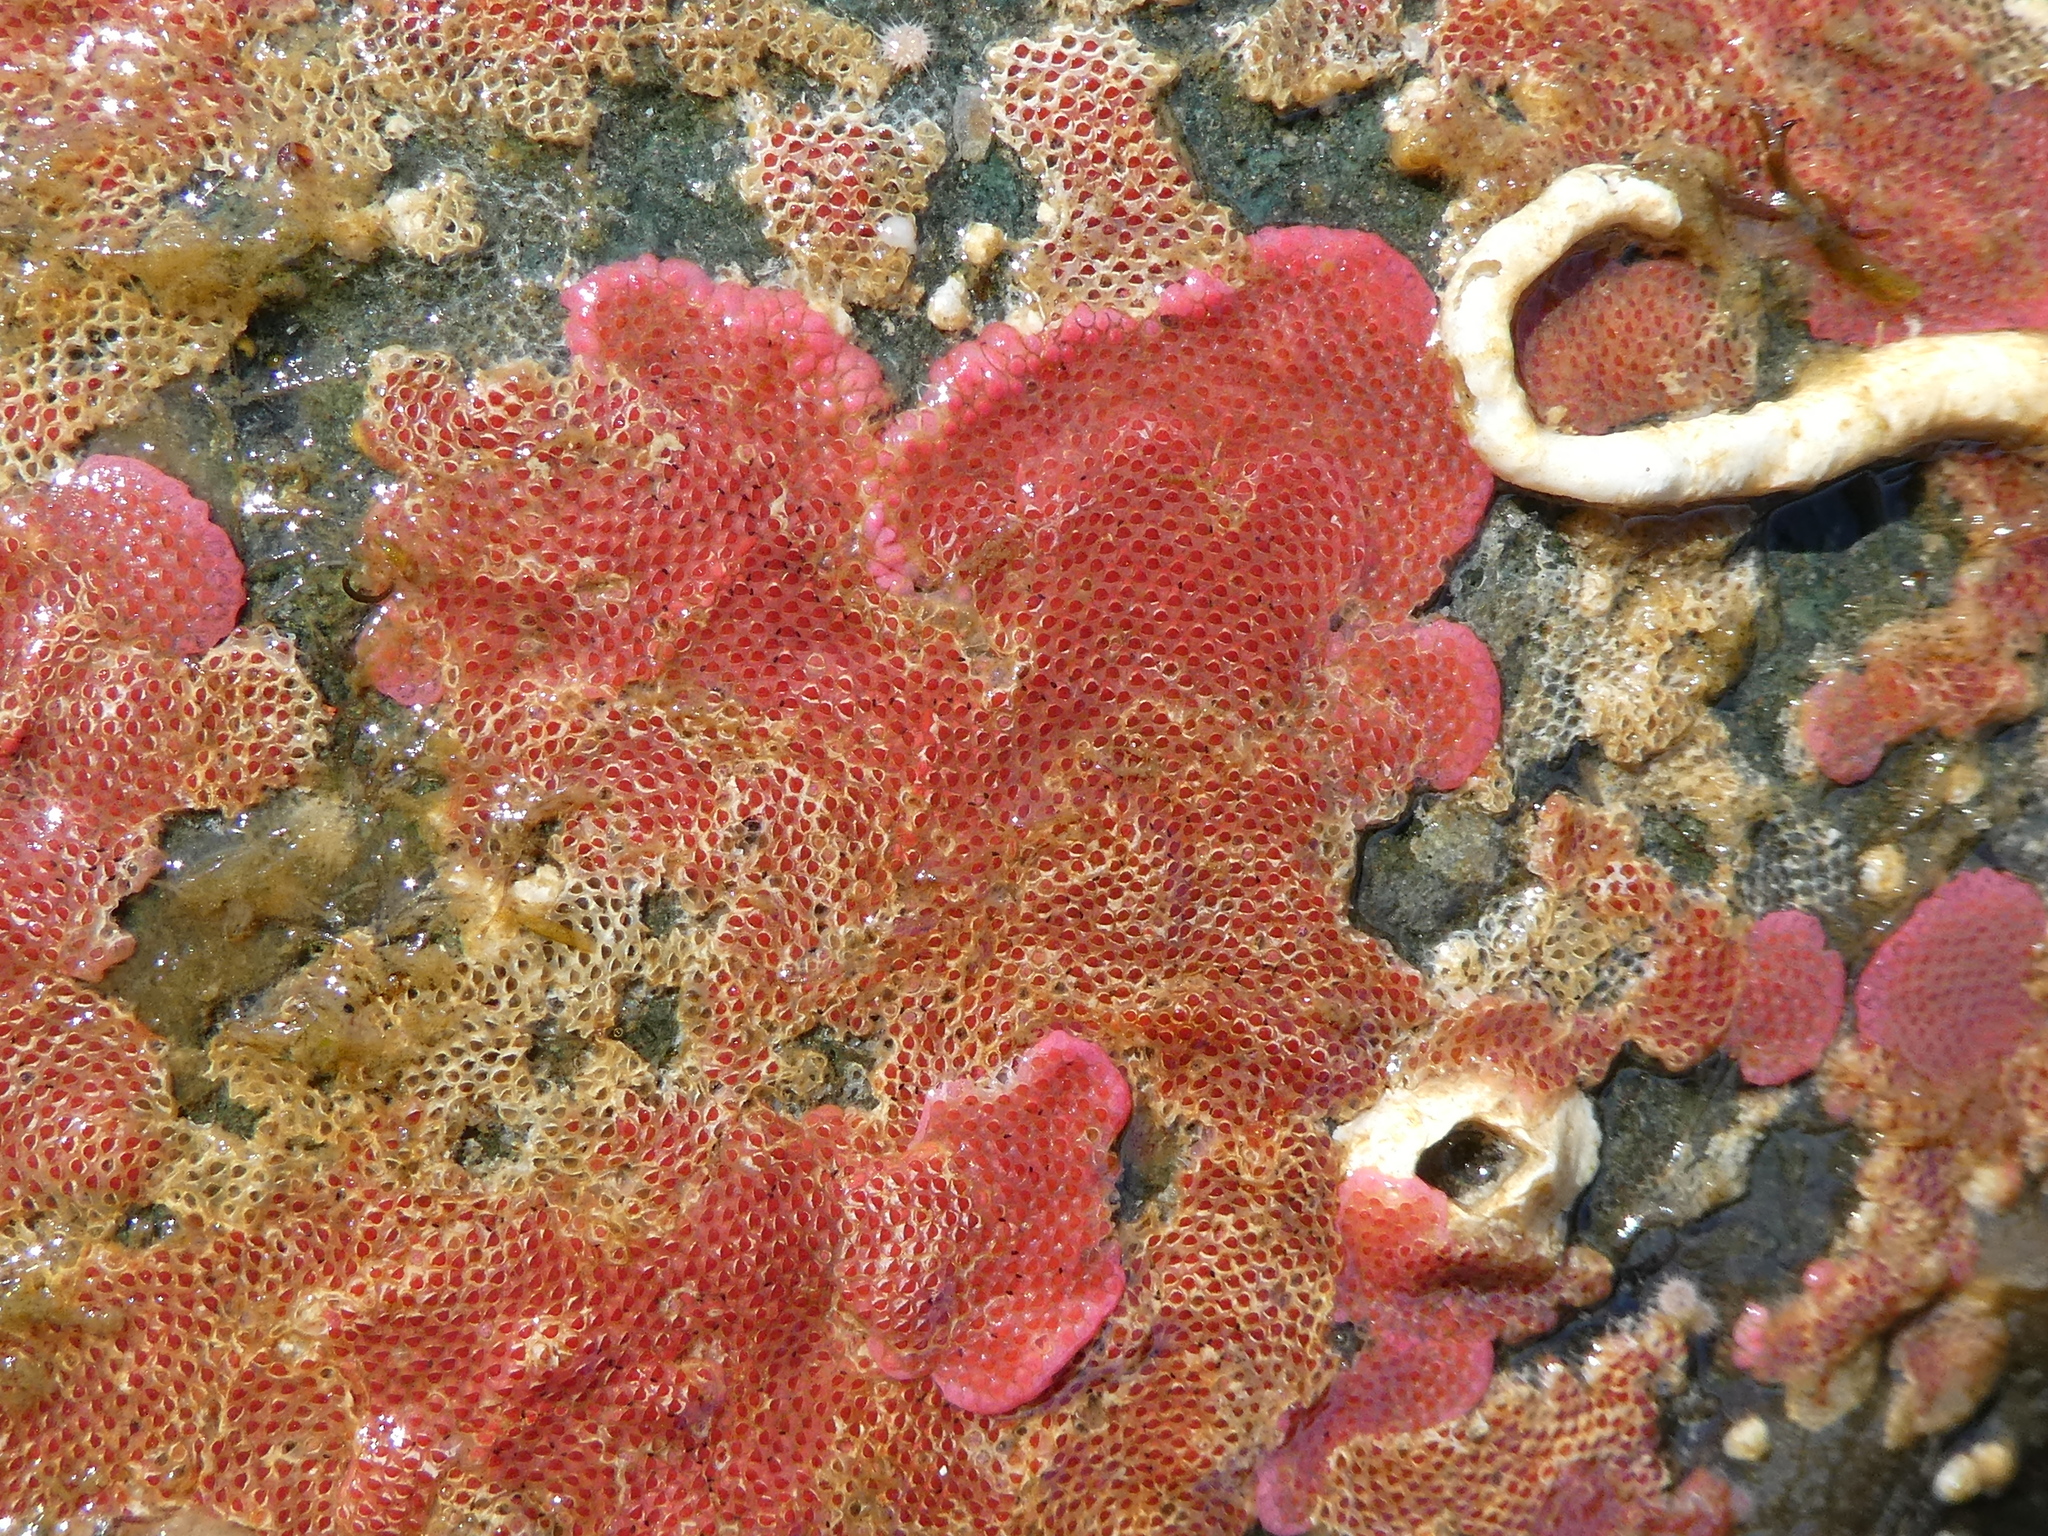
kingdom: Animalia
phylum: Bryozoa
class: Gymnolaemata
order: Cheilostomatida
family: Eurystomellidae
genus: Integripelta
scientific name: Integripelta bilabiata
